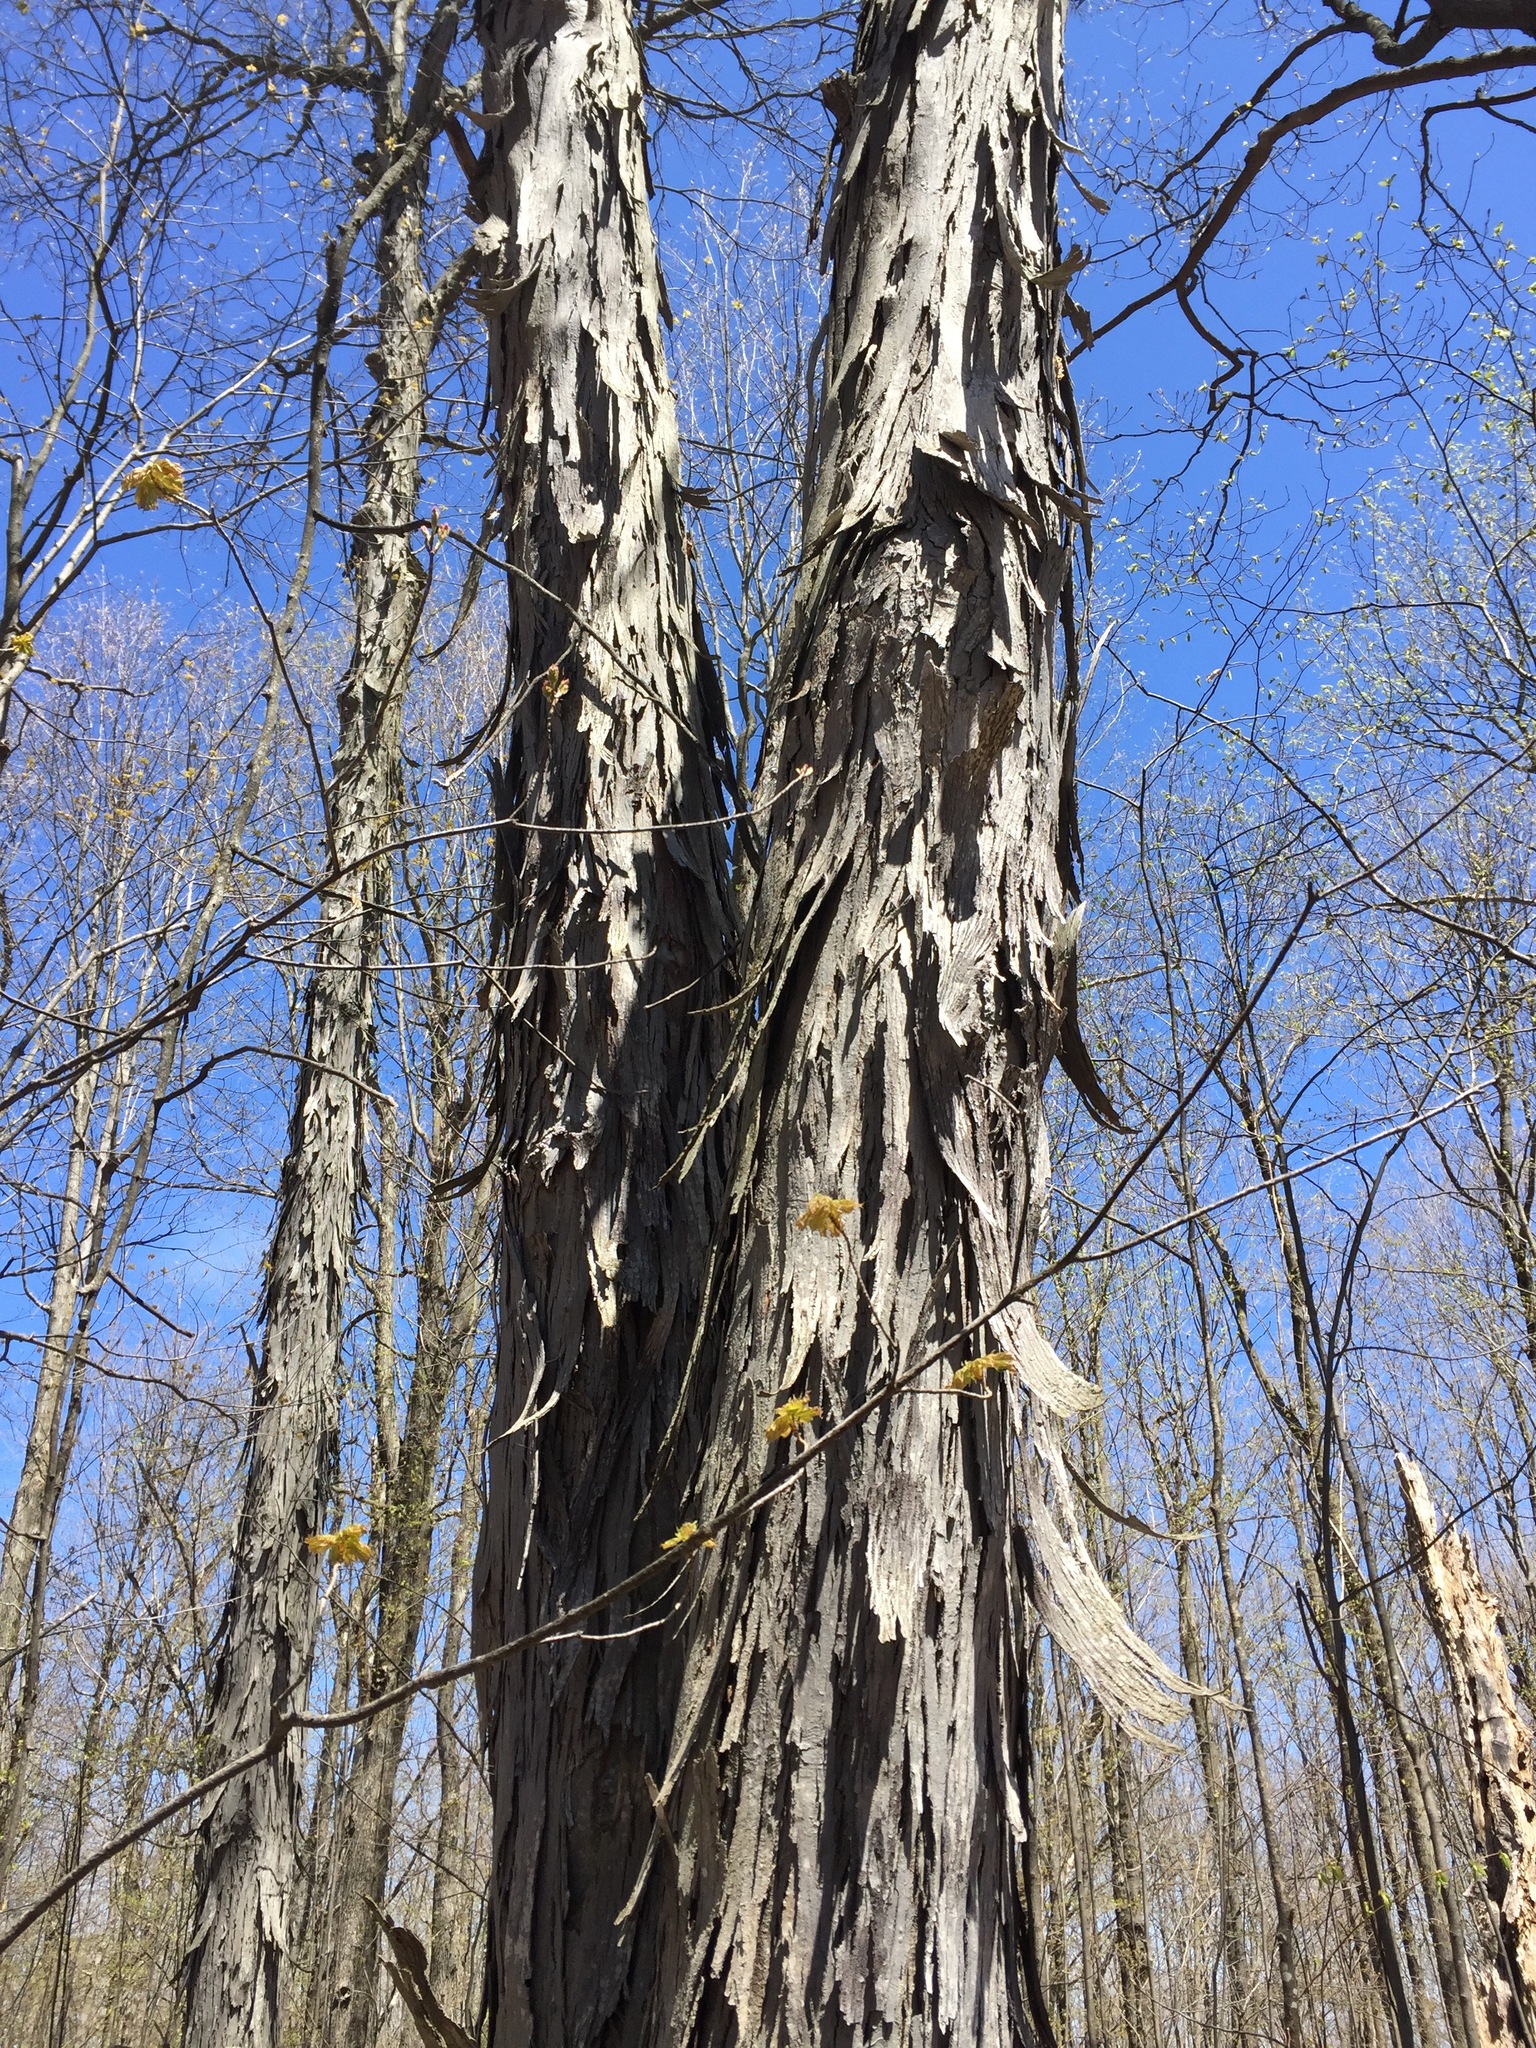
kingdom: Plantae
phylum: Tracheophyta
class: Magnoliopsida
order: Fagales
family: Juglandaceae
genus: Carya
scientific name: Carya ovata
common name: Shagbark hickory
